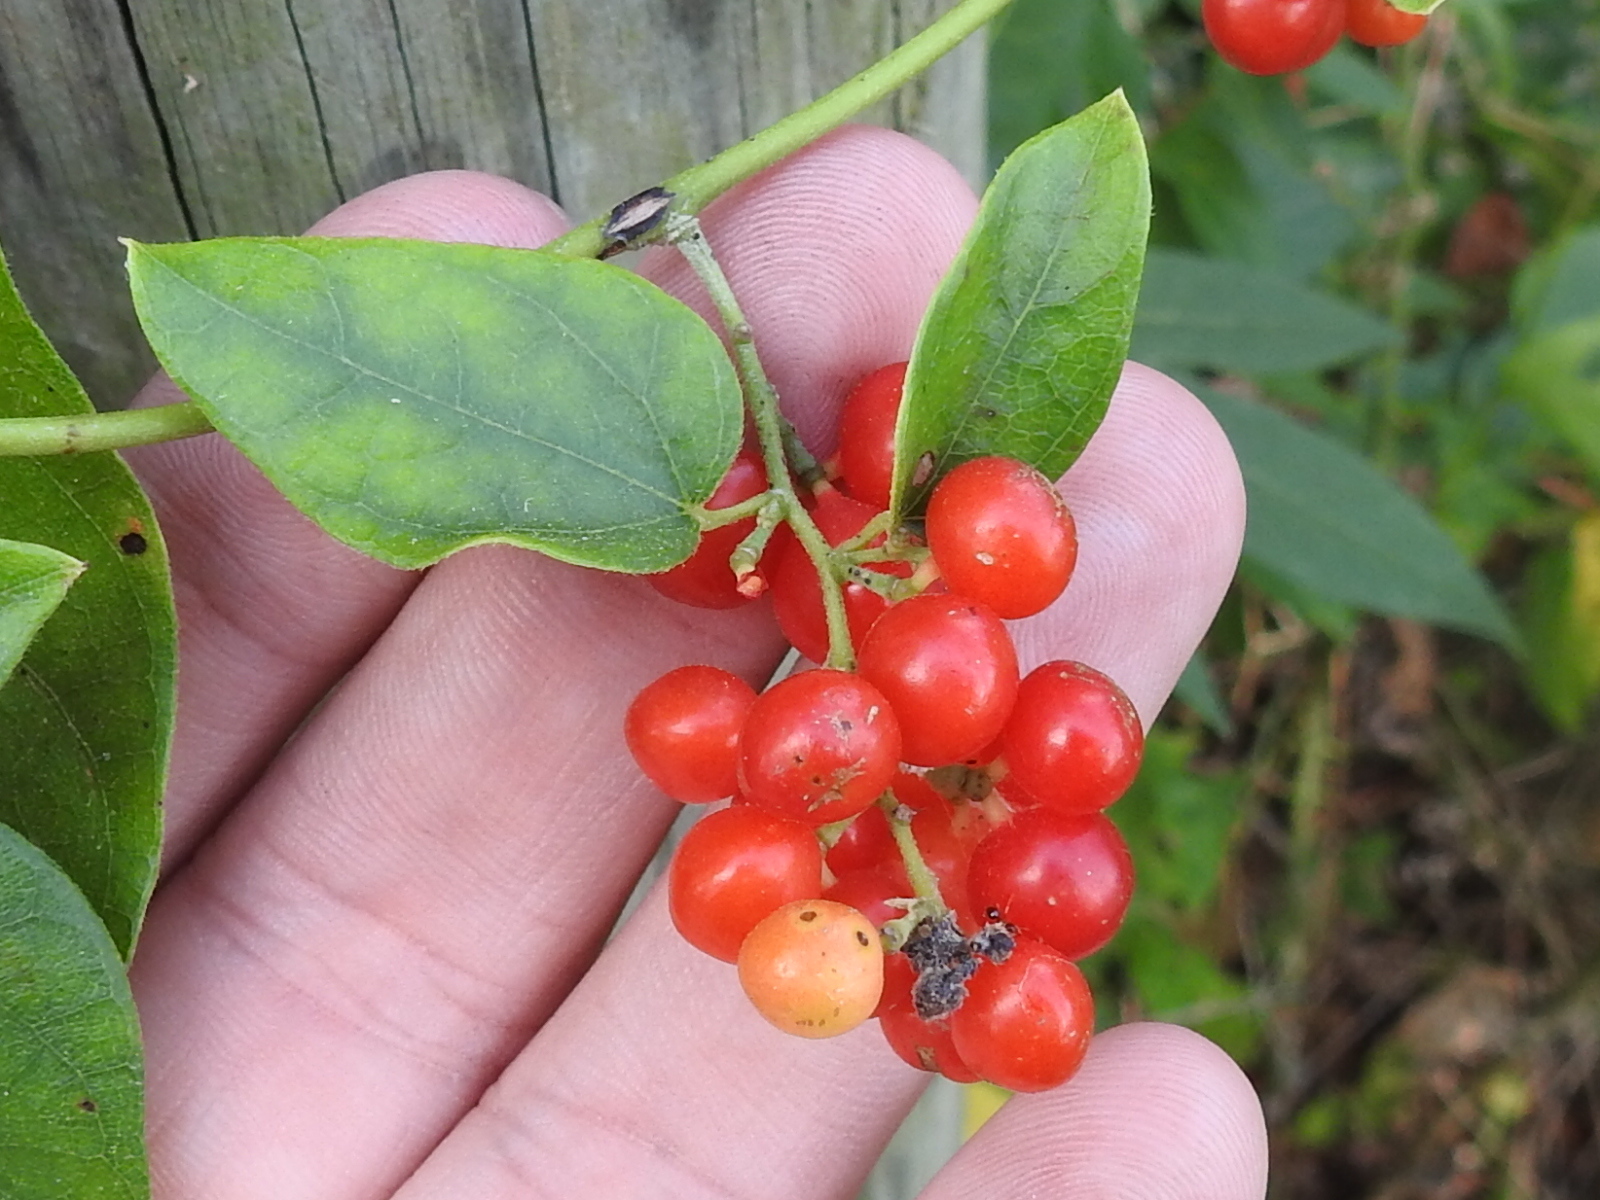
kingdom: Plantae
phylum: Tracheophyta
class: Magnoliopsida
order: Ranunculales
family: Menispermaceae
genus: Cocculus
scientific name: Cocculus carolinus
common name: Carolina moonseed
